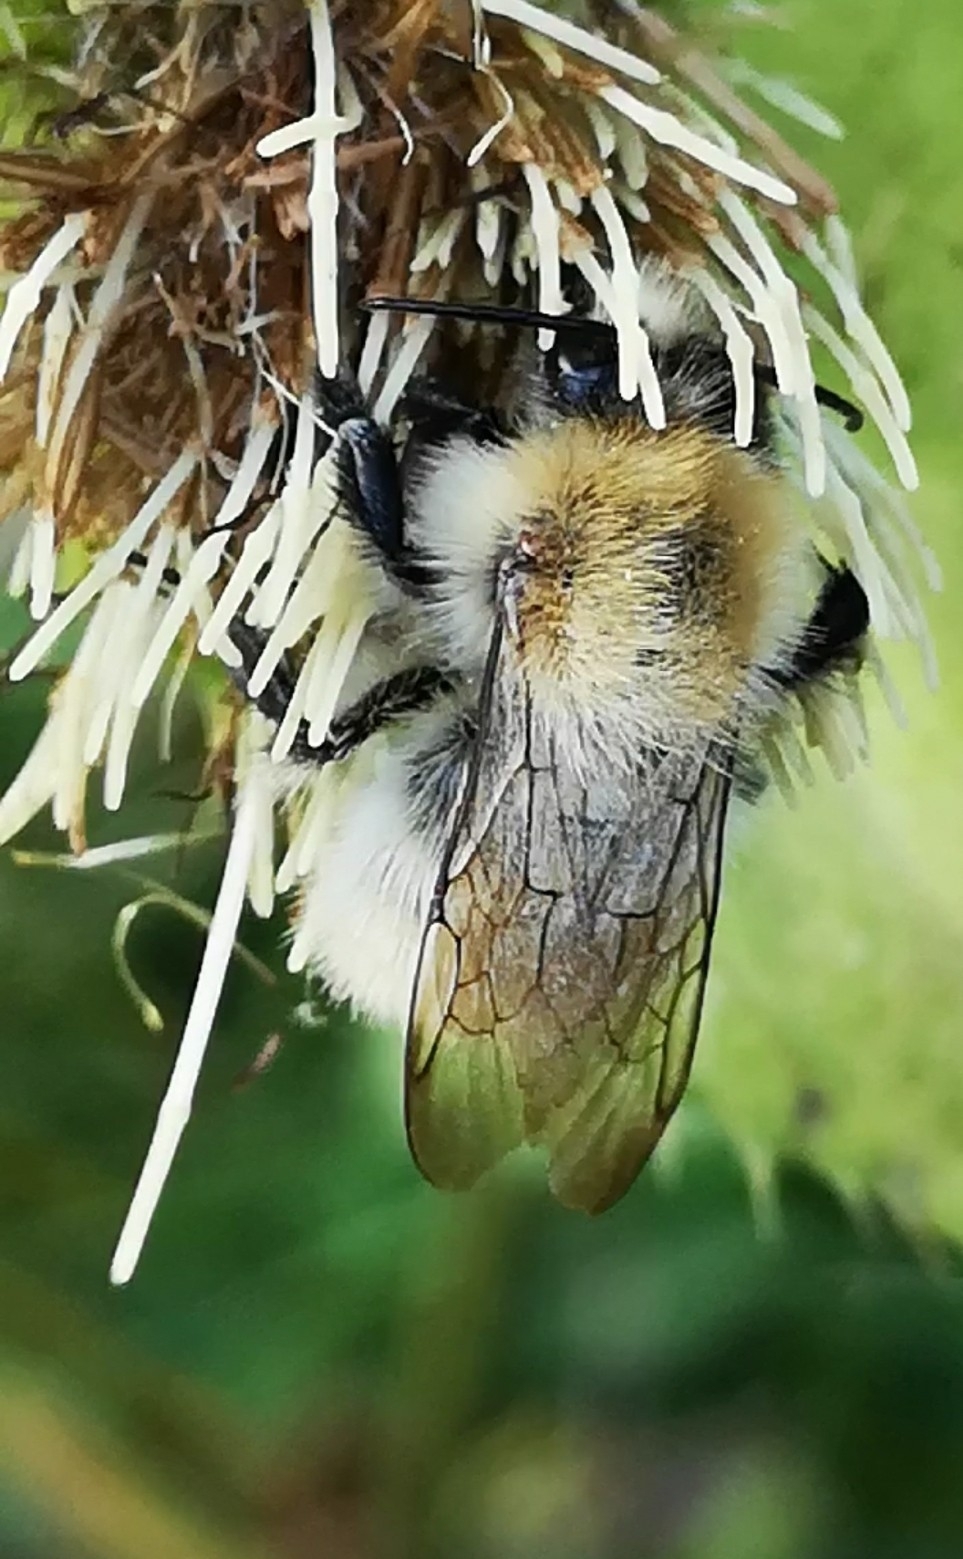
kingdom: Animalia
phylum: Arthropoda
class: Insecta
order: Hymenoptera
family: Apidae
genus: Bombus
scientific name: Bombus pascuorum
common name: Common carder bee
